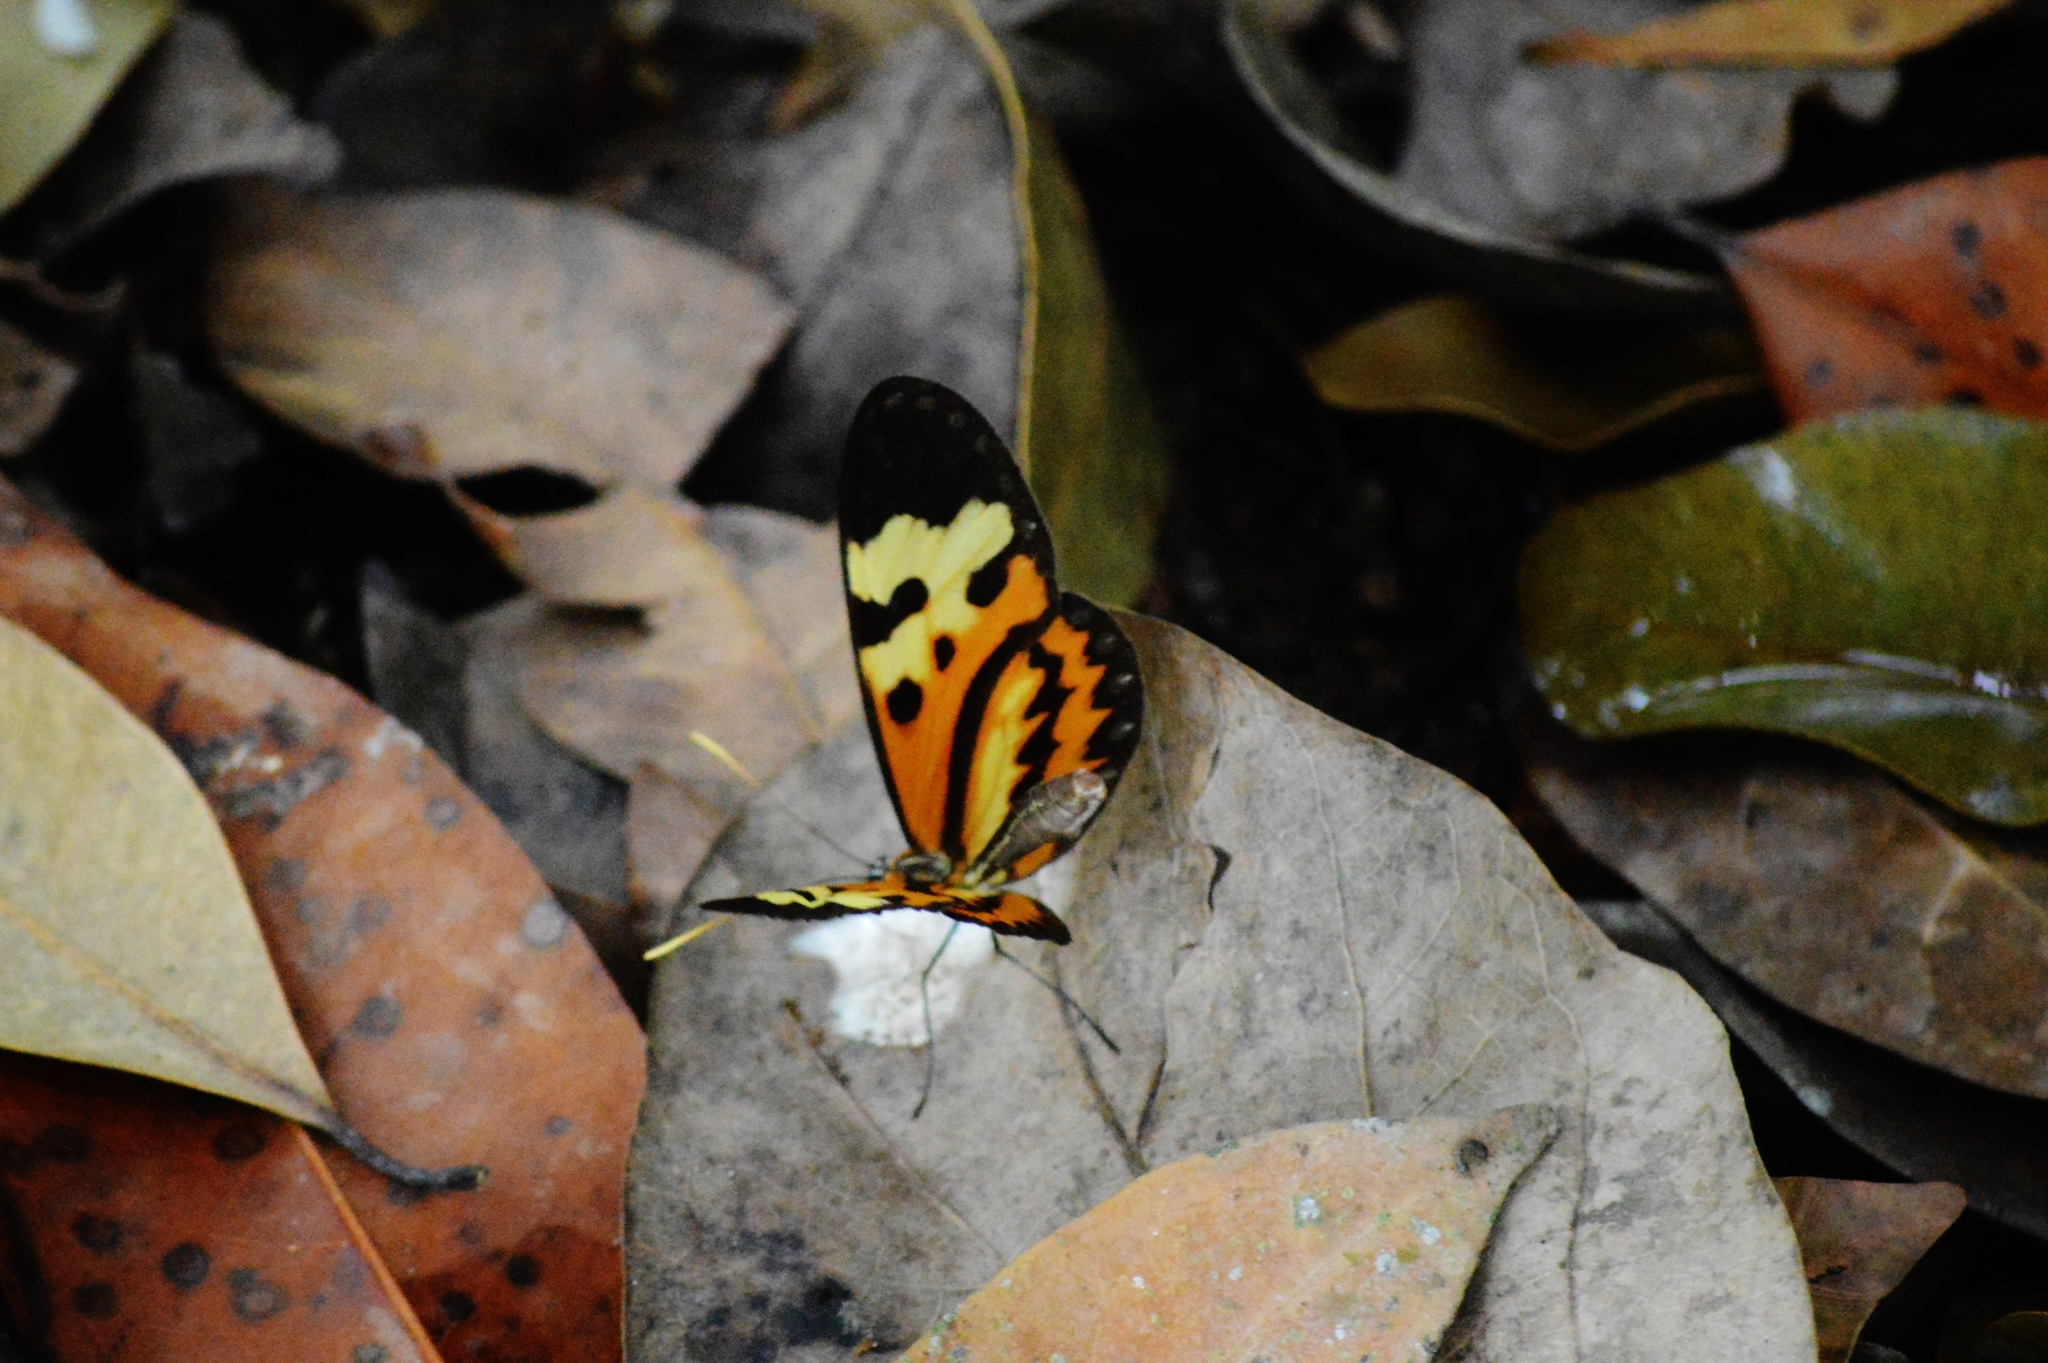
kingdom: Animalia
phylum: Arthropoda
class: Insecta
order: Lepidoptera
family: Nymphalidae
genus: Mechanitis
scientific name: Mechanitis polymnia
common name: Disturbed tigerwing
